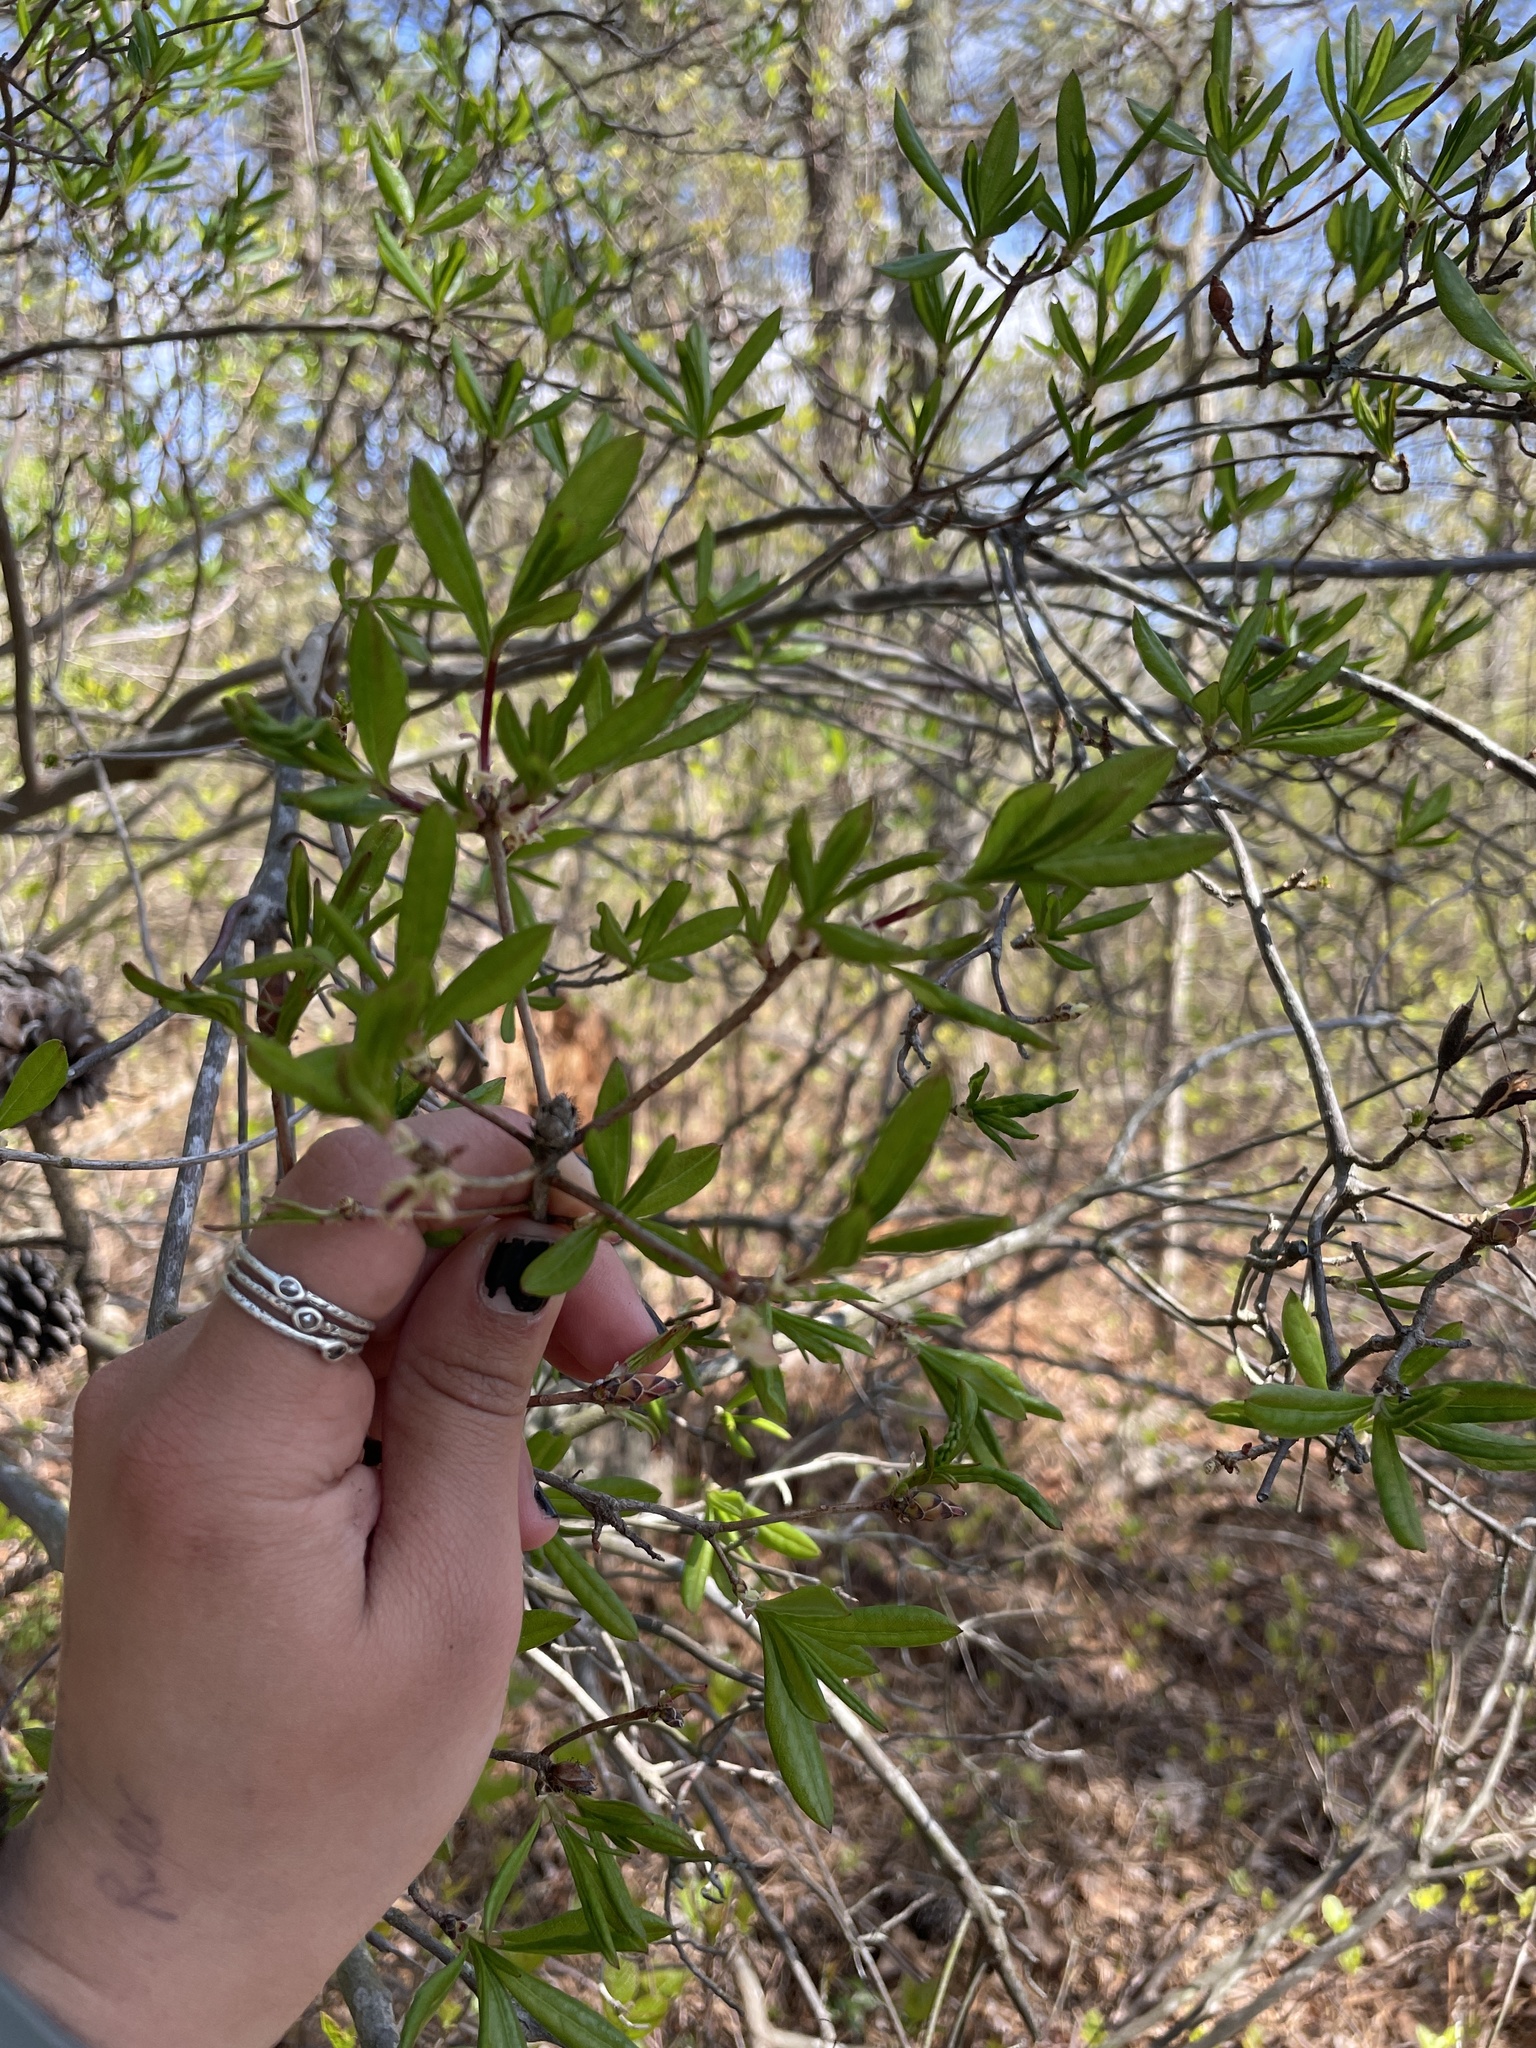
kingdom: Plantae
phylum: Tracheophyta
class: Magnoliopsida
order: Ericales
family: Ericaceae
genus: Rhododendron
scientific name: Rhododendron viscosum
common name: Clammy azalea
